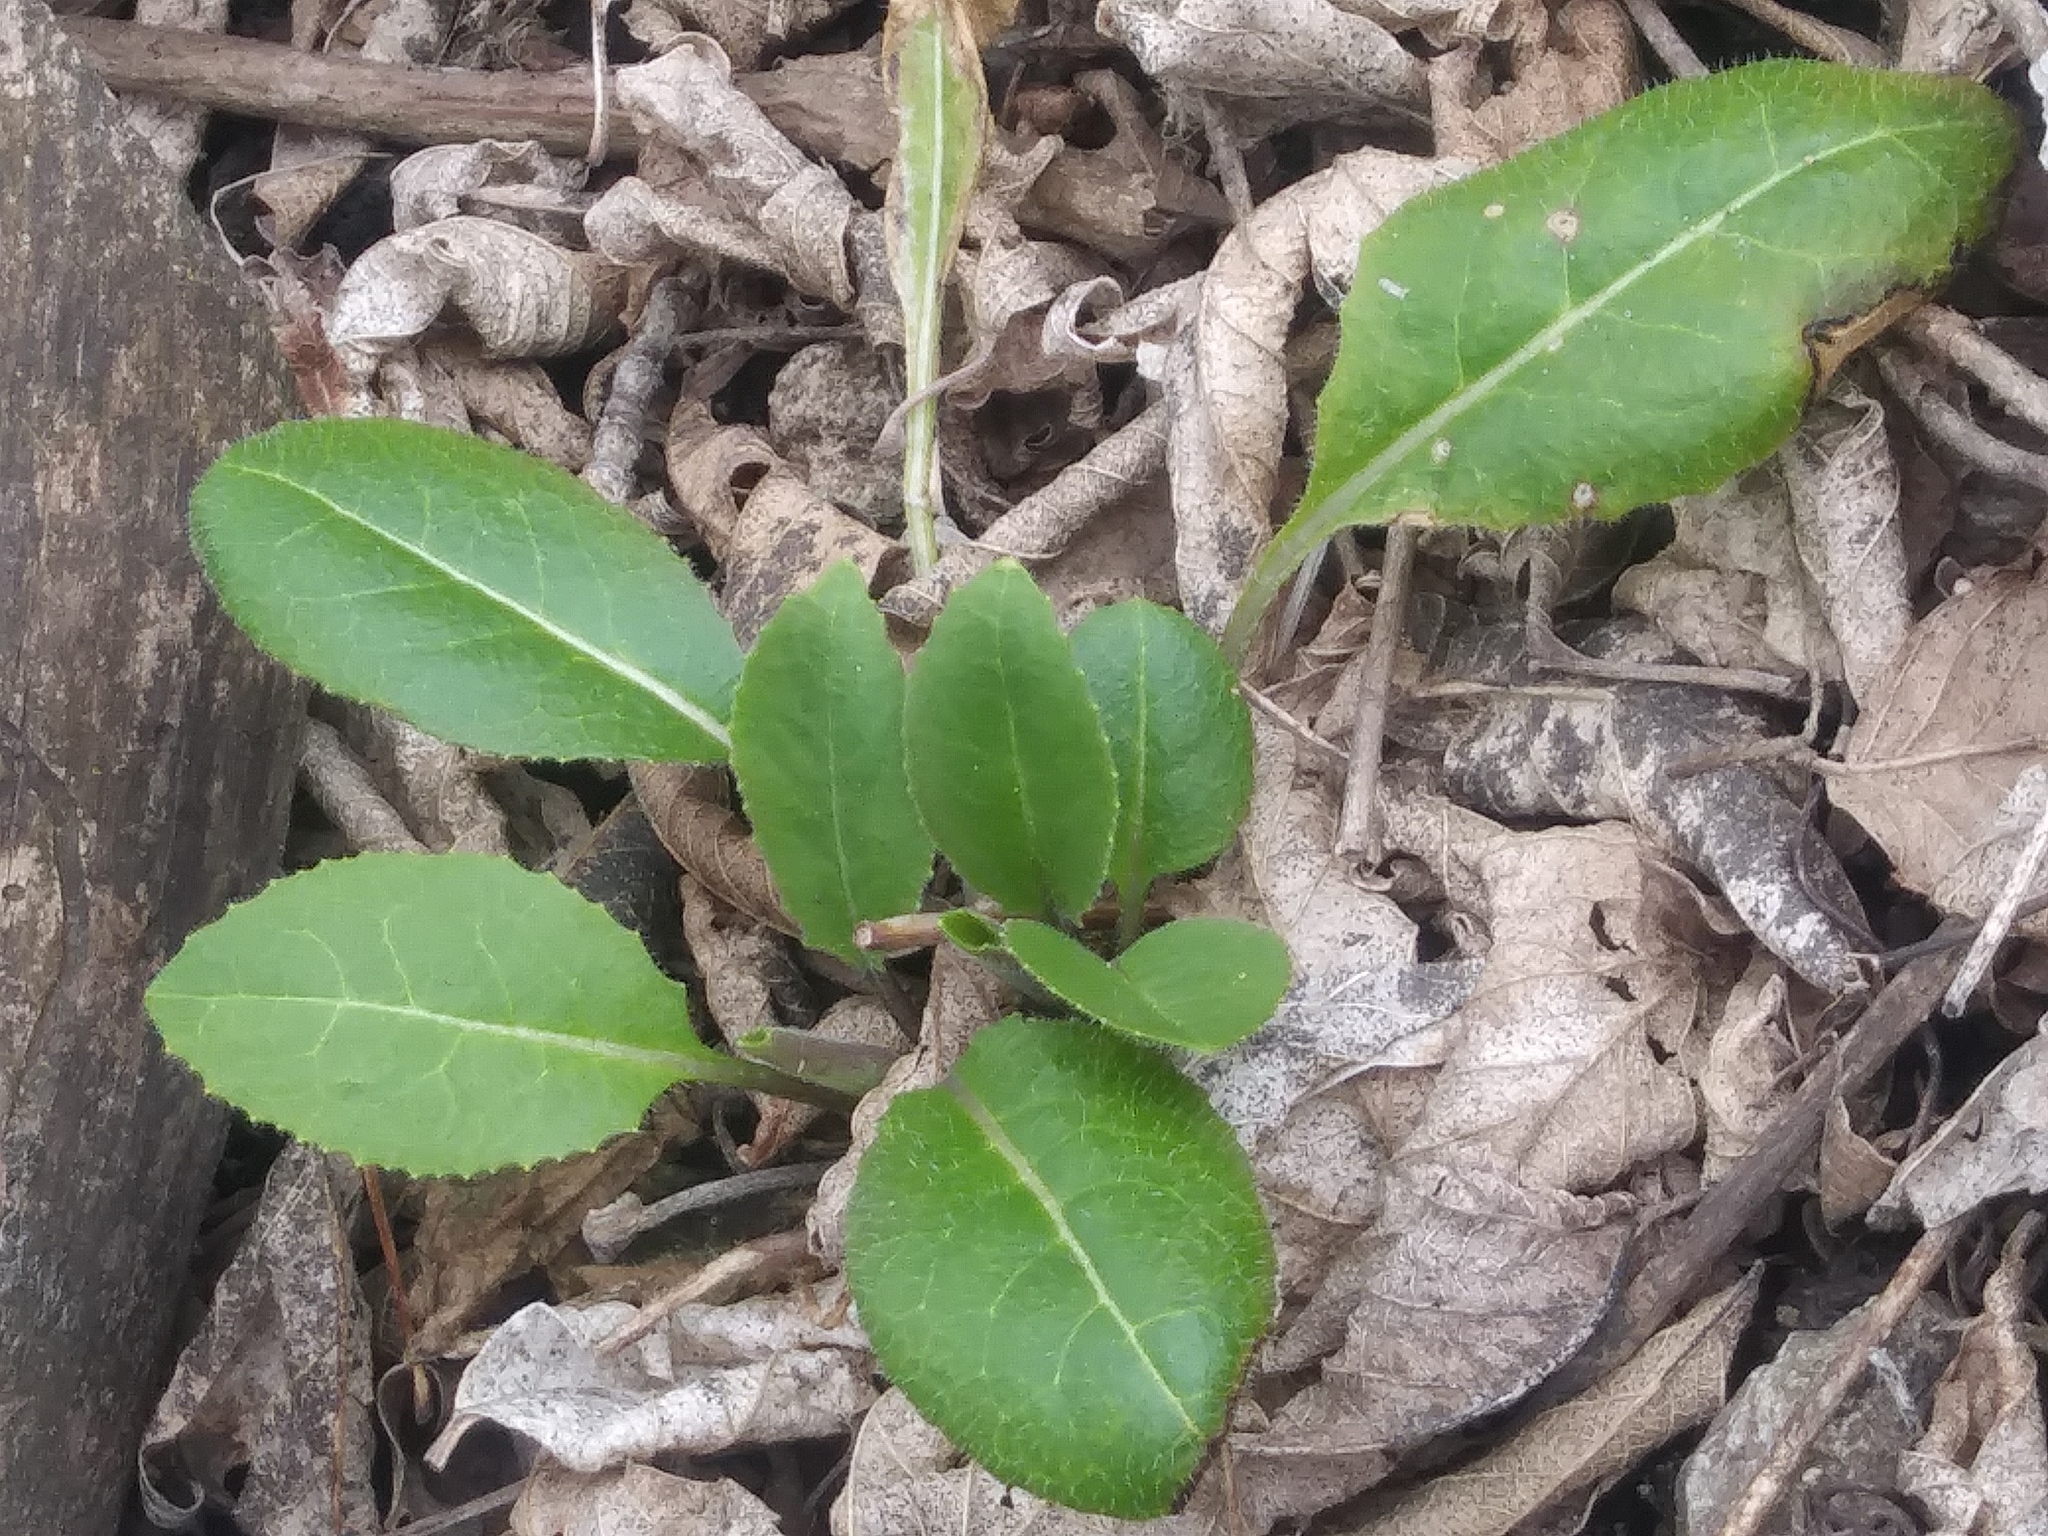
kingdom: Plantae
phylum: Tracheophyta
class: Magnoliopsida
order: Brassicales
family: Brassicaceae
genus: Hesperis
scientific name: Hesperis matronalis
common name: Dame's-violet
